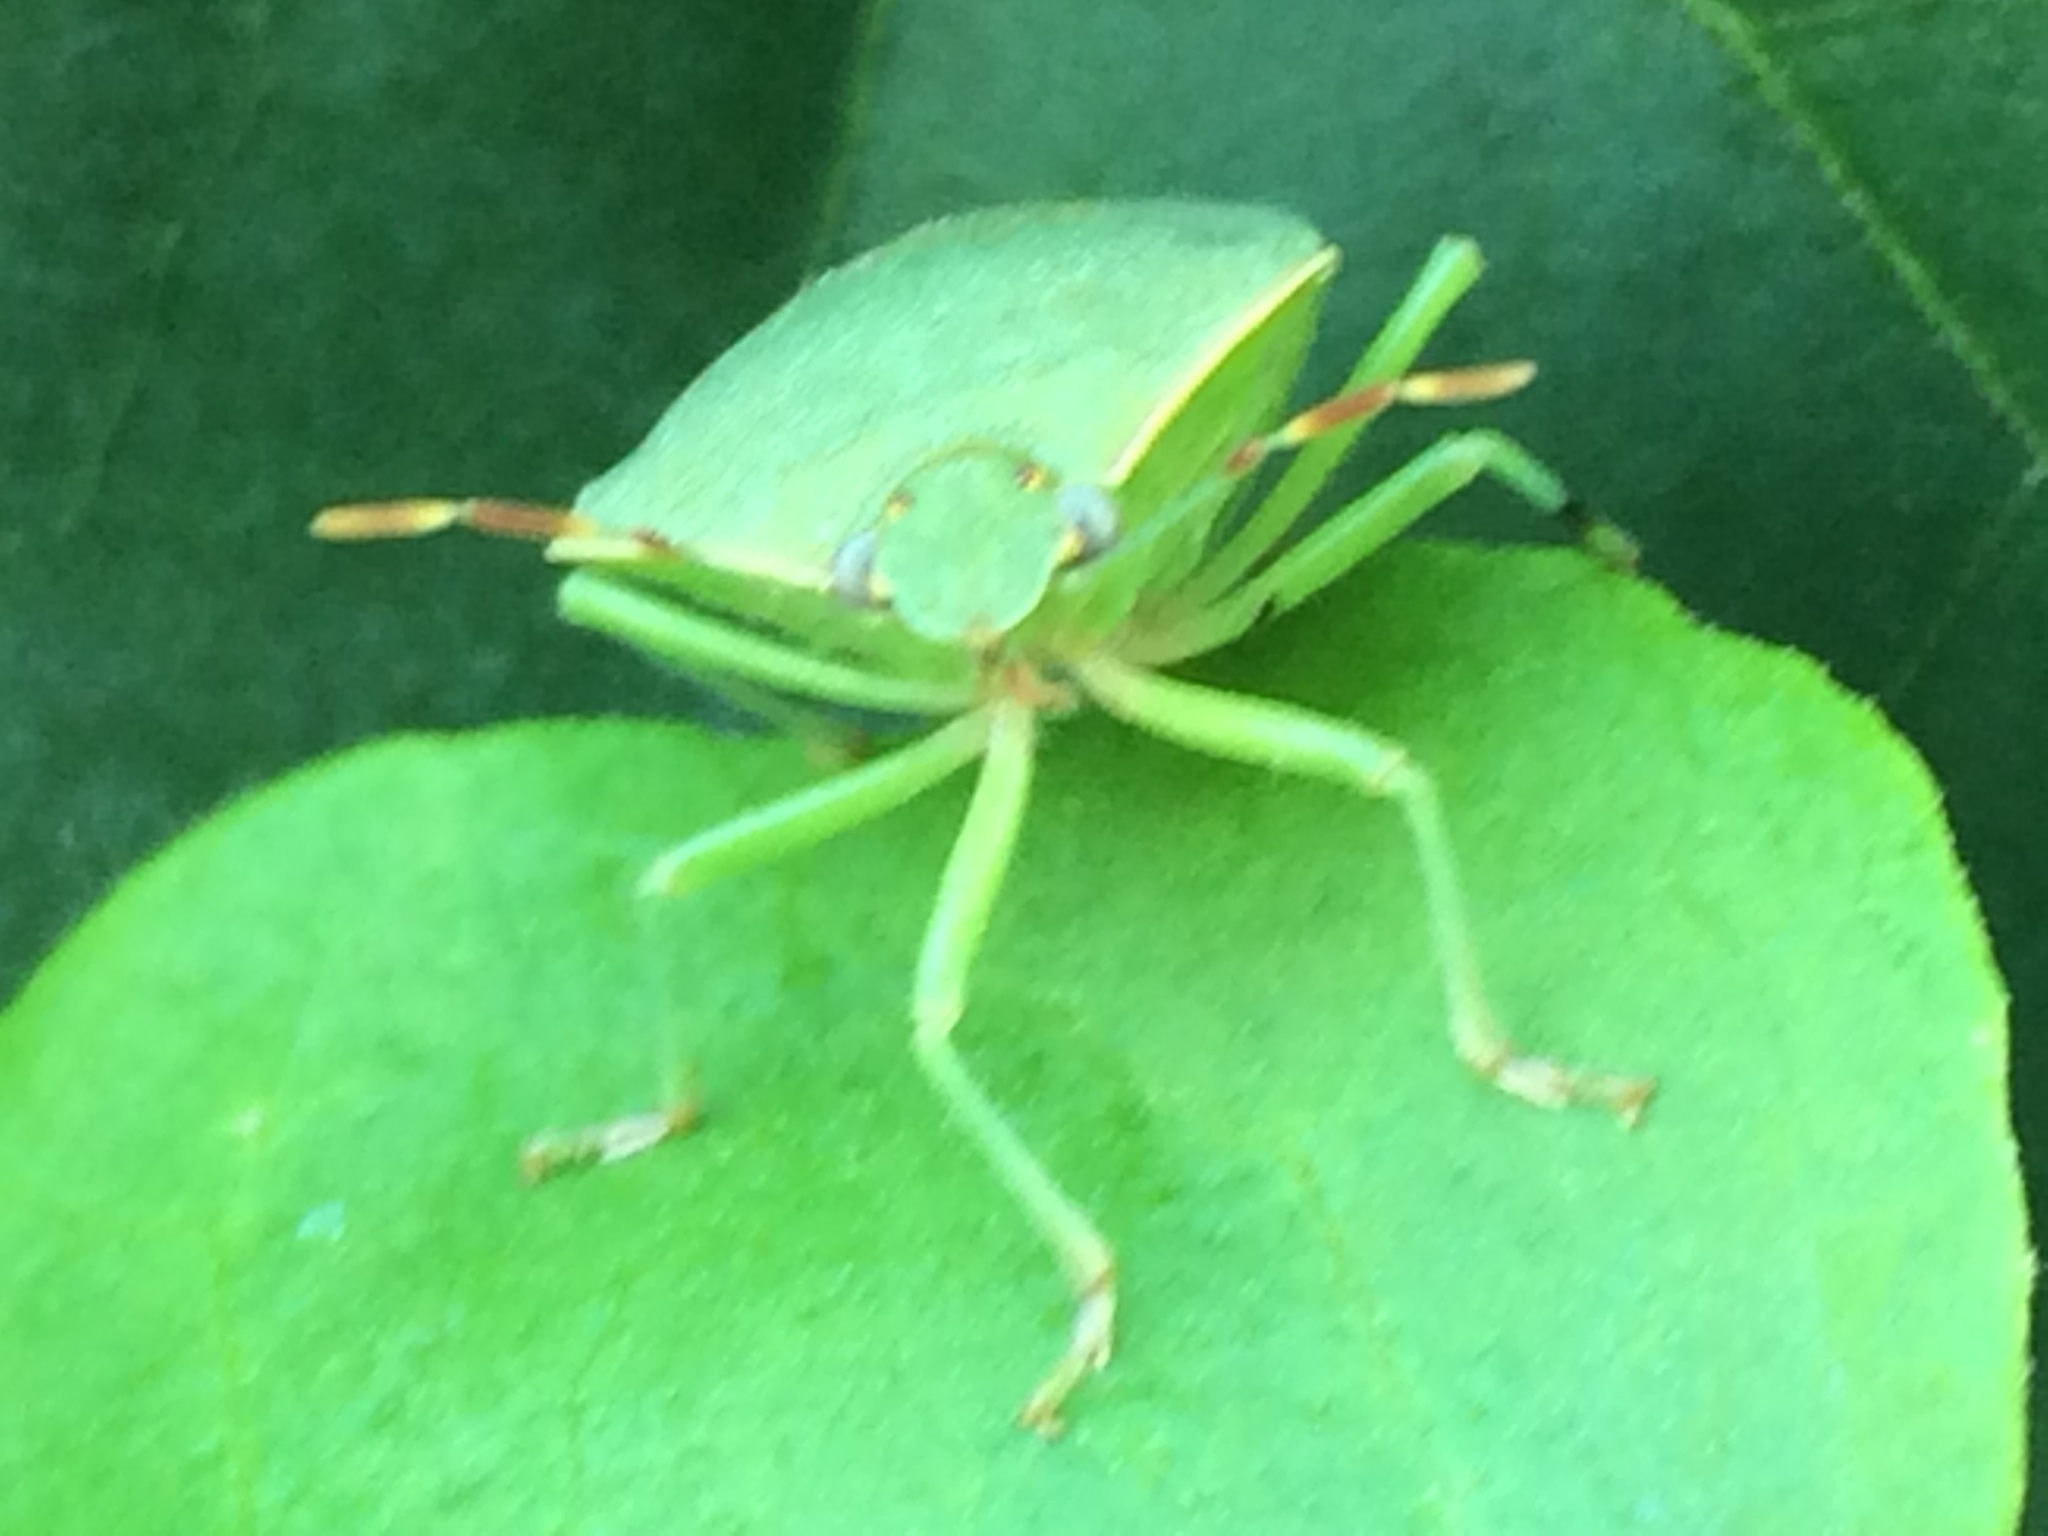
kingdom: Animalia
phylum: Arthropoda
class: Insecta
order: Hemiptera
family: Pentatomidae
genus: Nezara
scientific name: Nezara viridula
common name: Southern green stink bug
